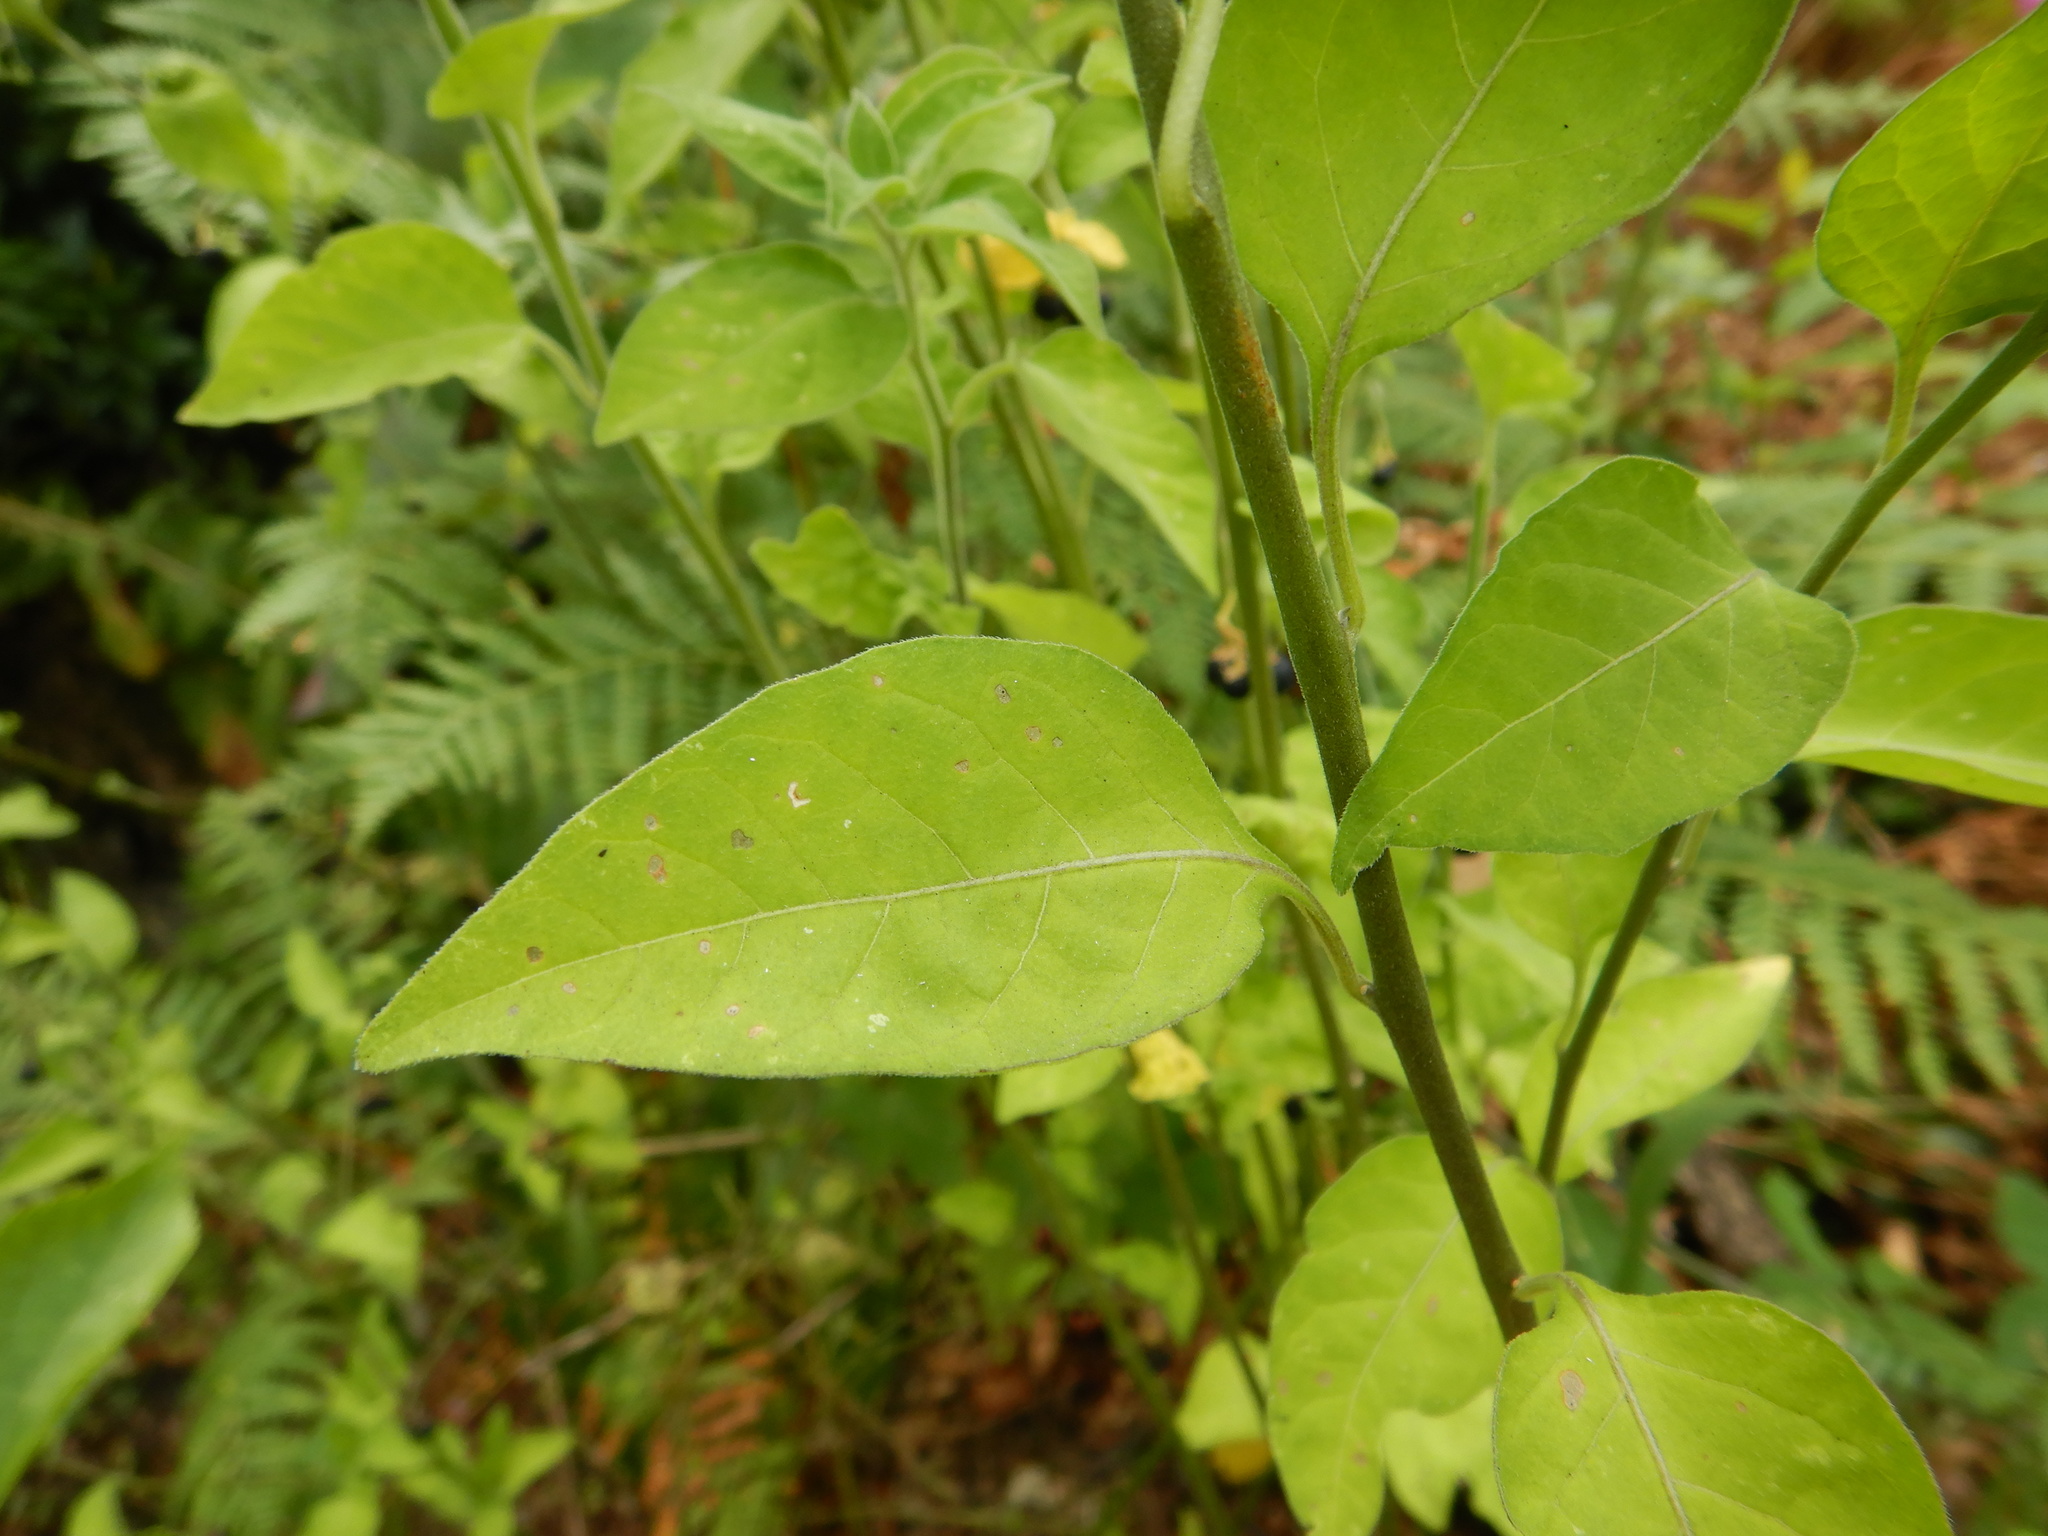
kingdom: Plantae
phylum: Tracheophyta
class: Magnoliopsida
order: Solanales
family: Solanaceae
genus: Solanum
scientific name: Solanum chenopodioides
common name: Tall nightshade
